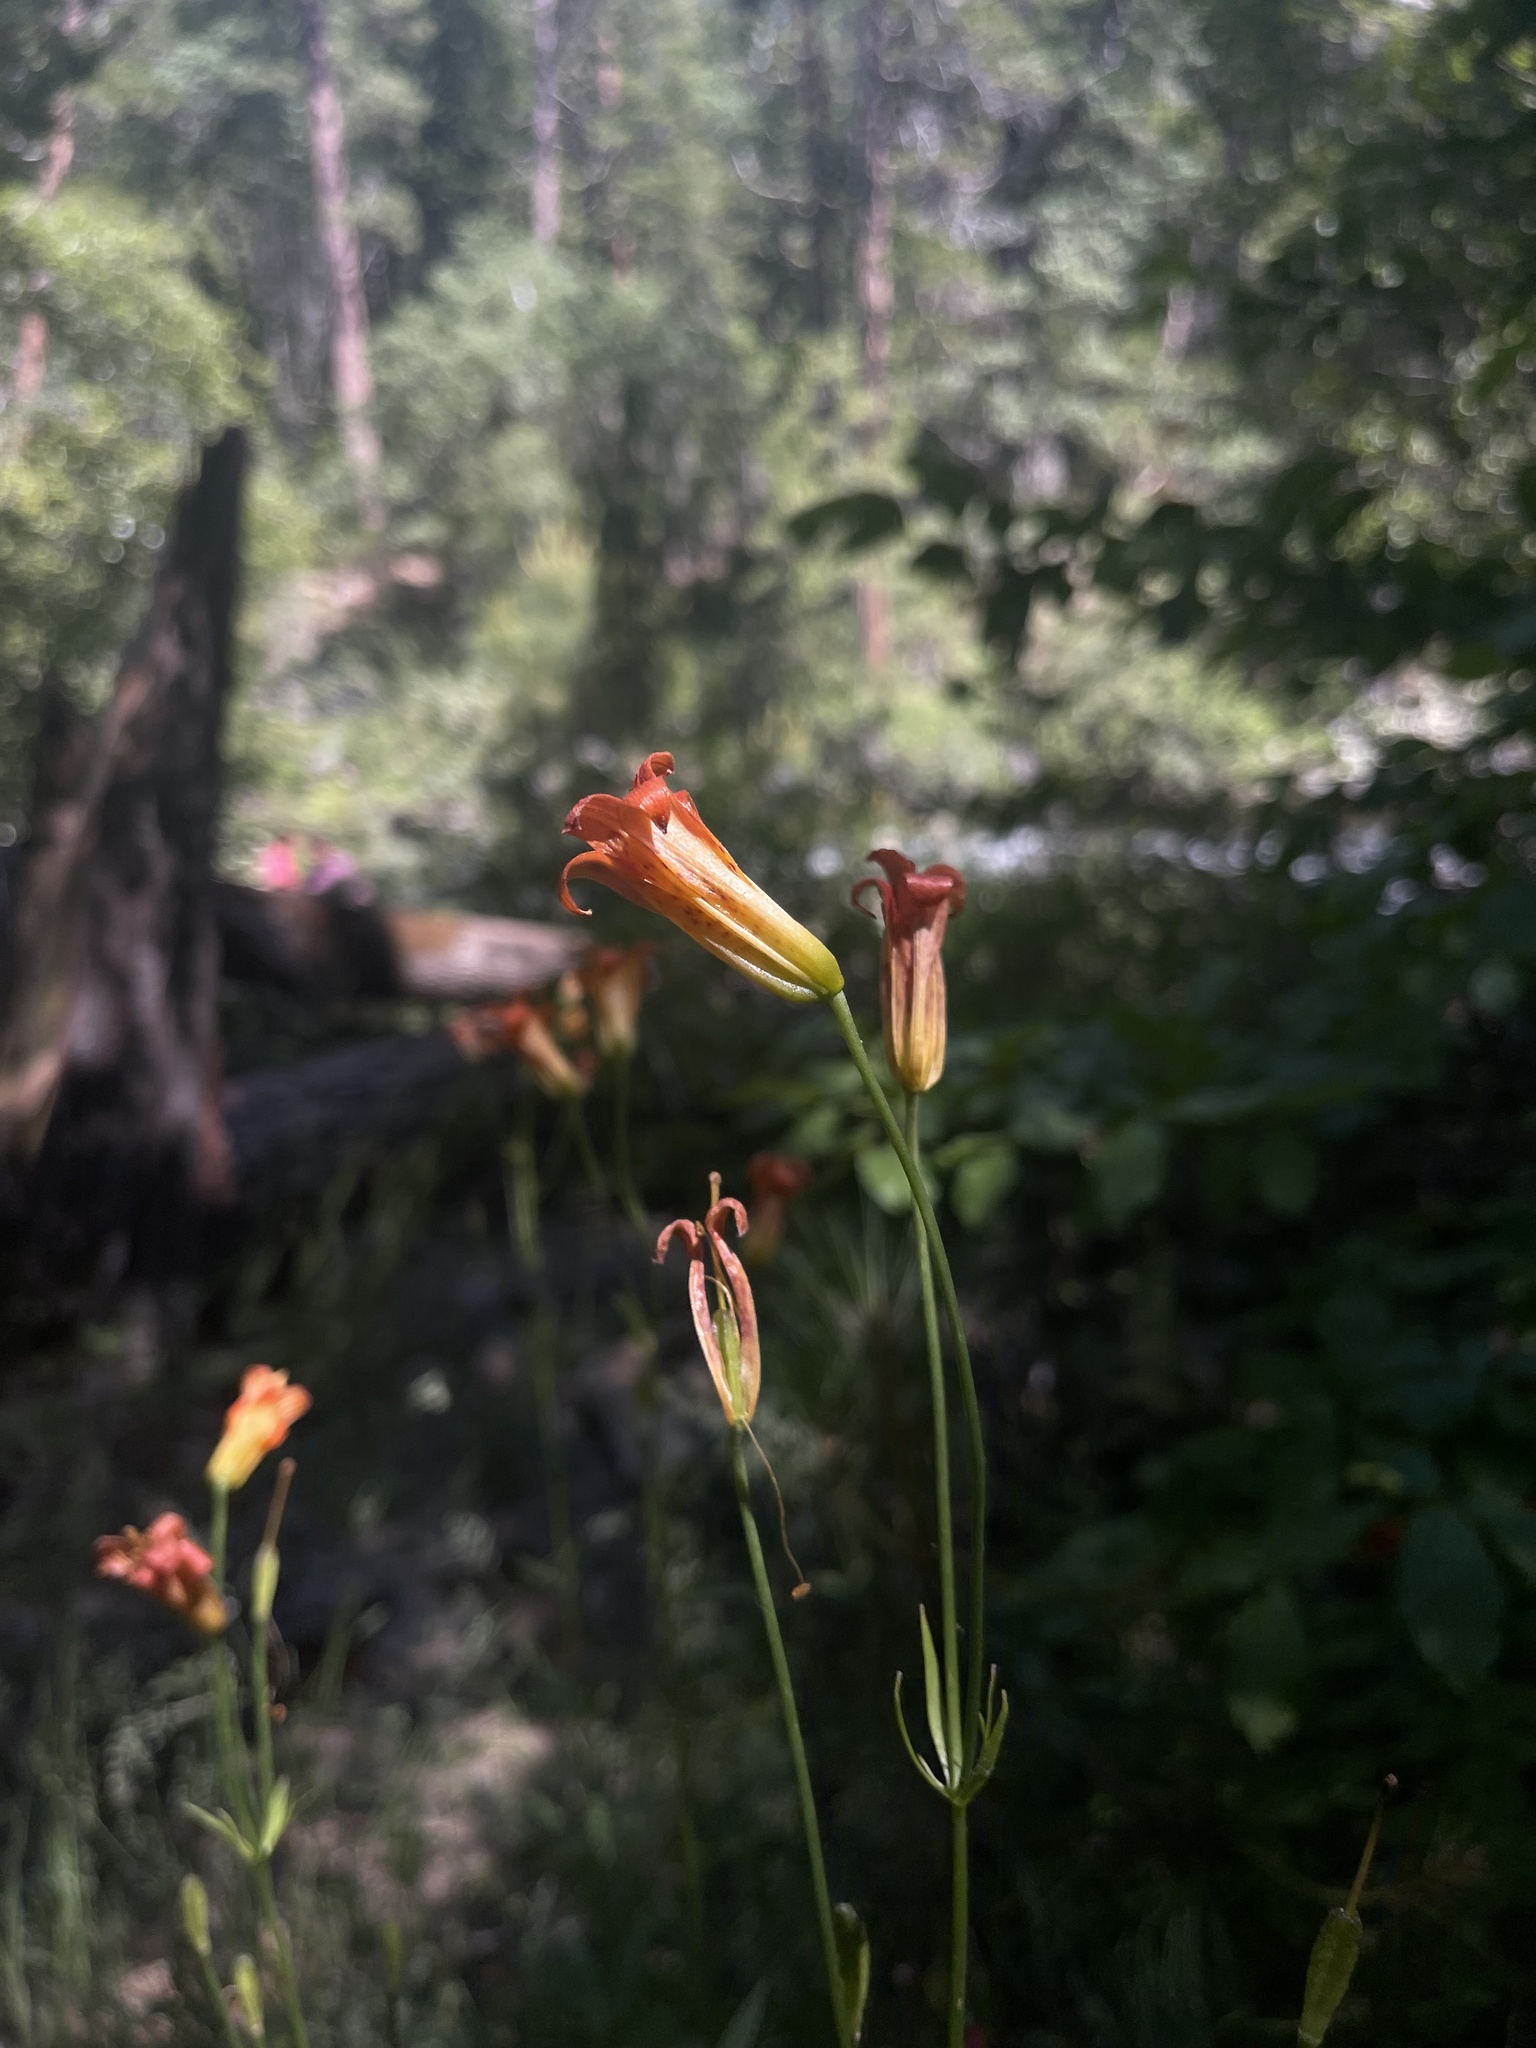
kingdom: Plantae
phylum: Tracheophyta
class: Liliopsida
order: Liliales
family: Liliaceae
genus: Lilium
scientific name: Lilium parvum
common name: Alpine lily
